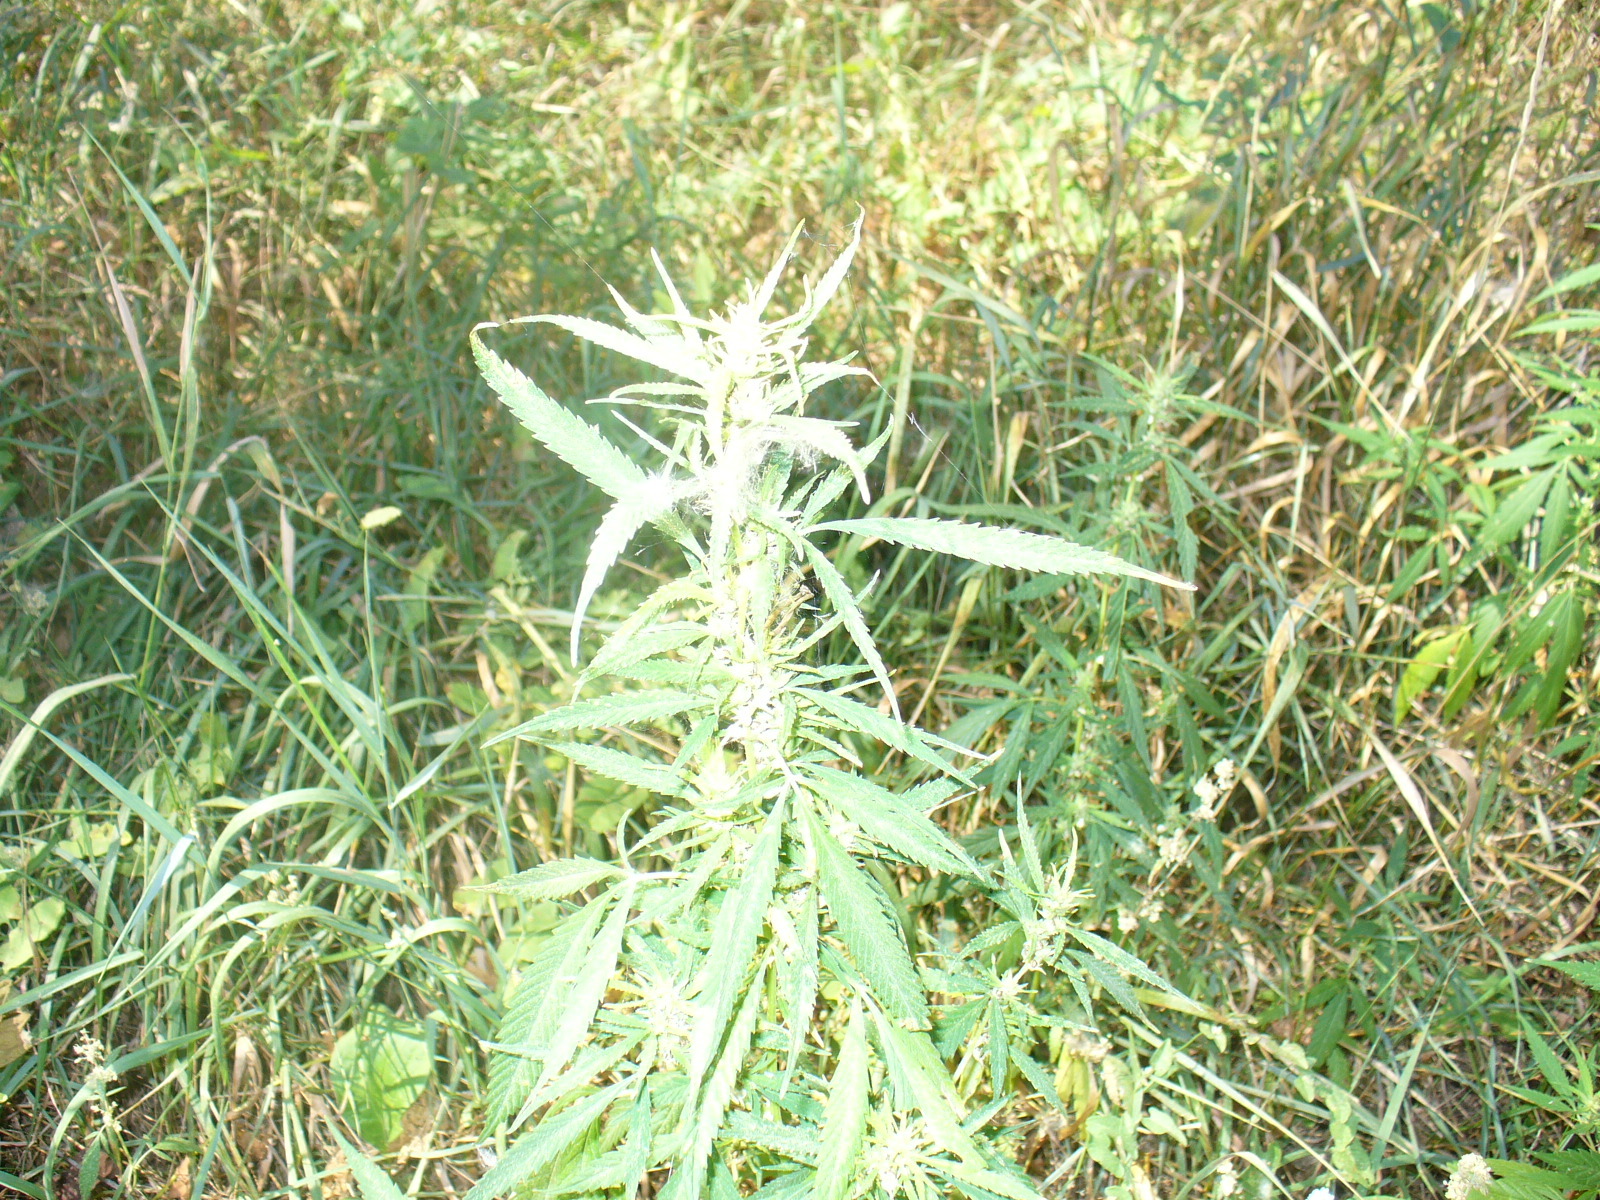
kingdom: Plantae
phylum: Tracheophyta
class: Magnoliopsida
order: Rosales
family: Cannabaceae
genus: Cannabis
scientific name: Cannabis sativa
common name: Hemp
